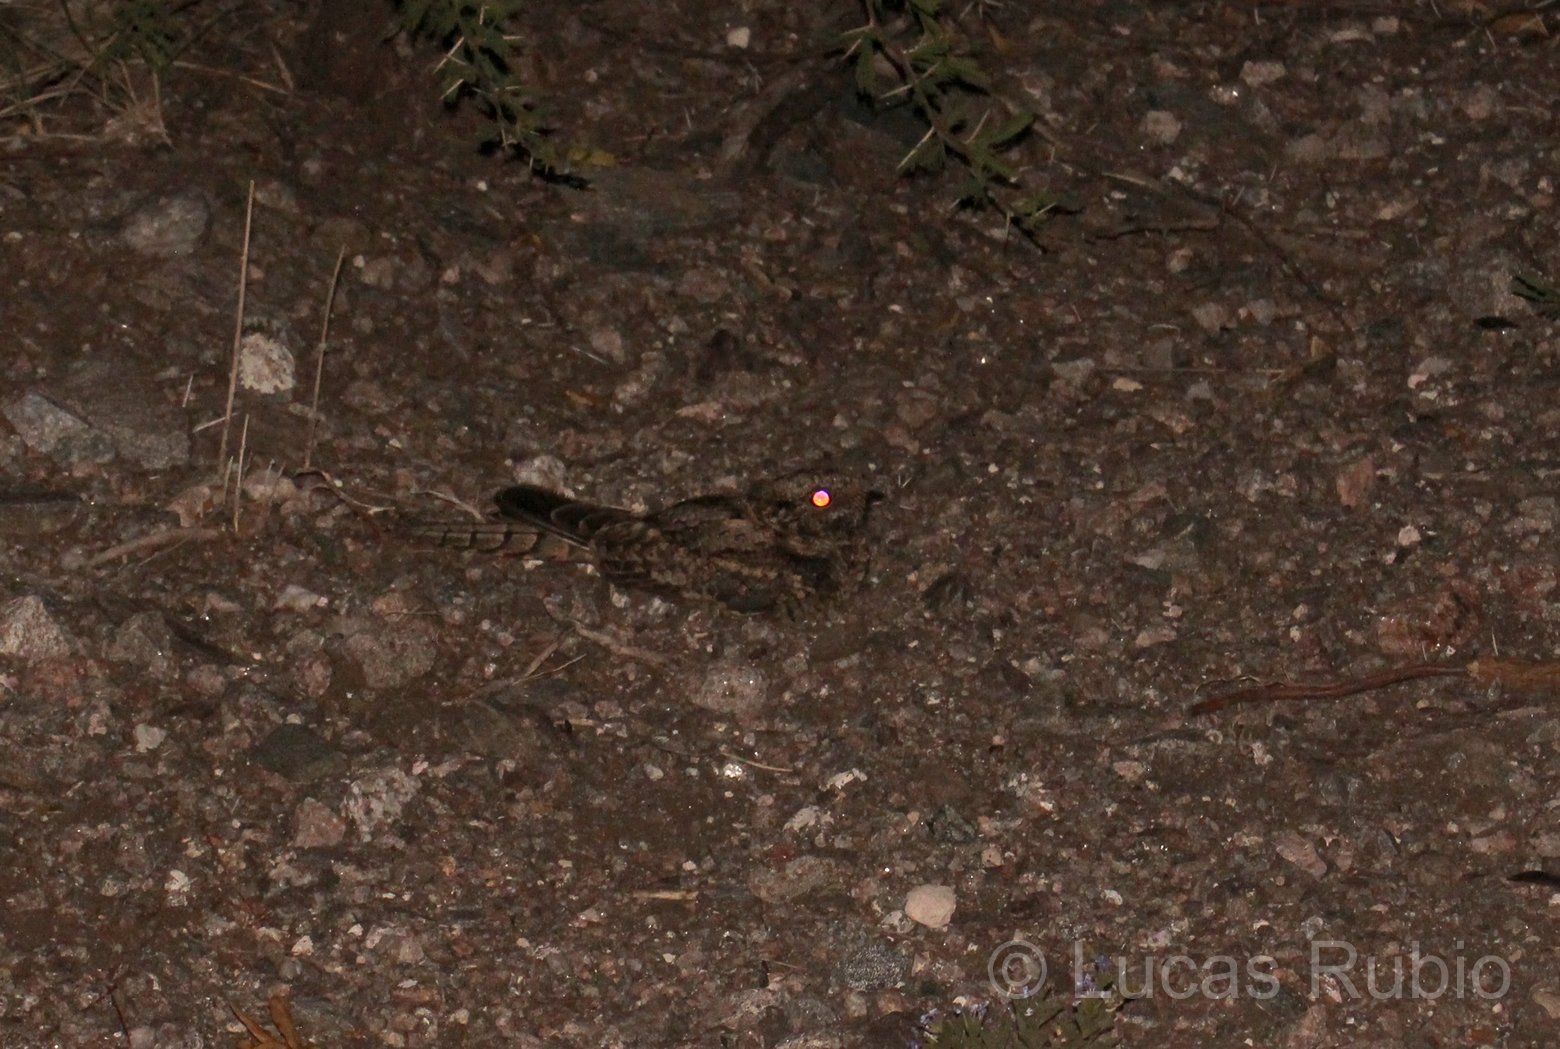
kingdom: Animalia
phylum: Chordata
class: Aves
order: Caprimulgiformes
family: Caprimulgidae
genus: Hydropsalis
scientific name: Hydropsalis torquata
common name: Scissor-tailed nightjar
